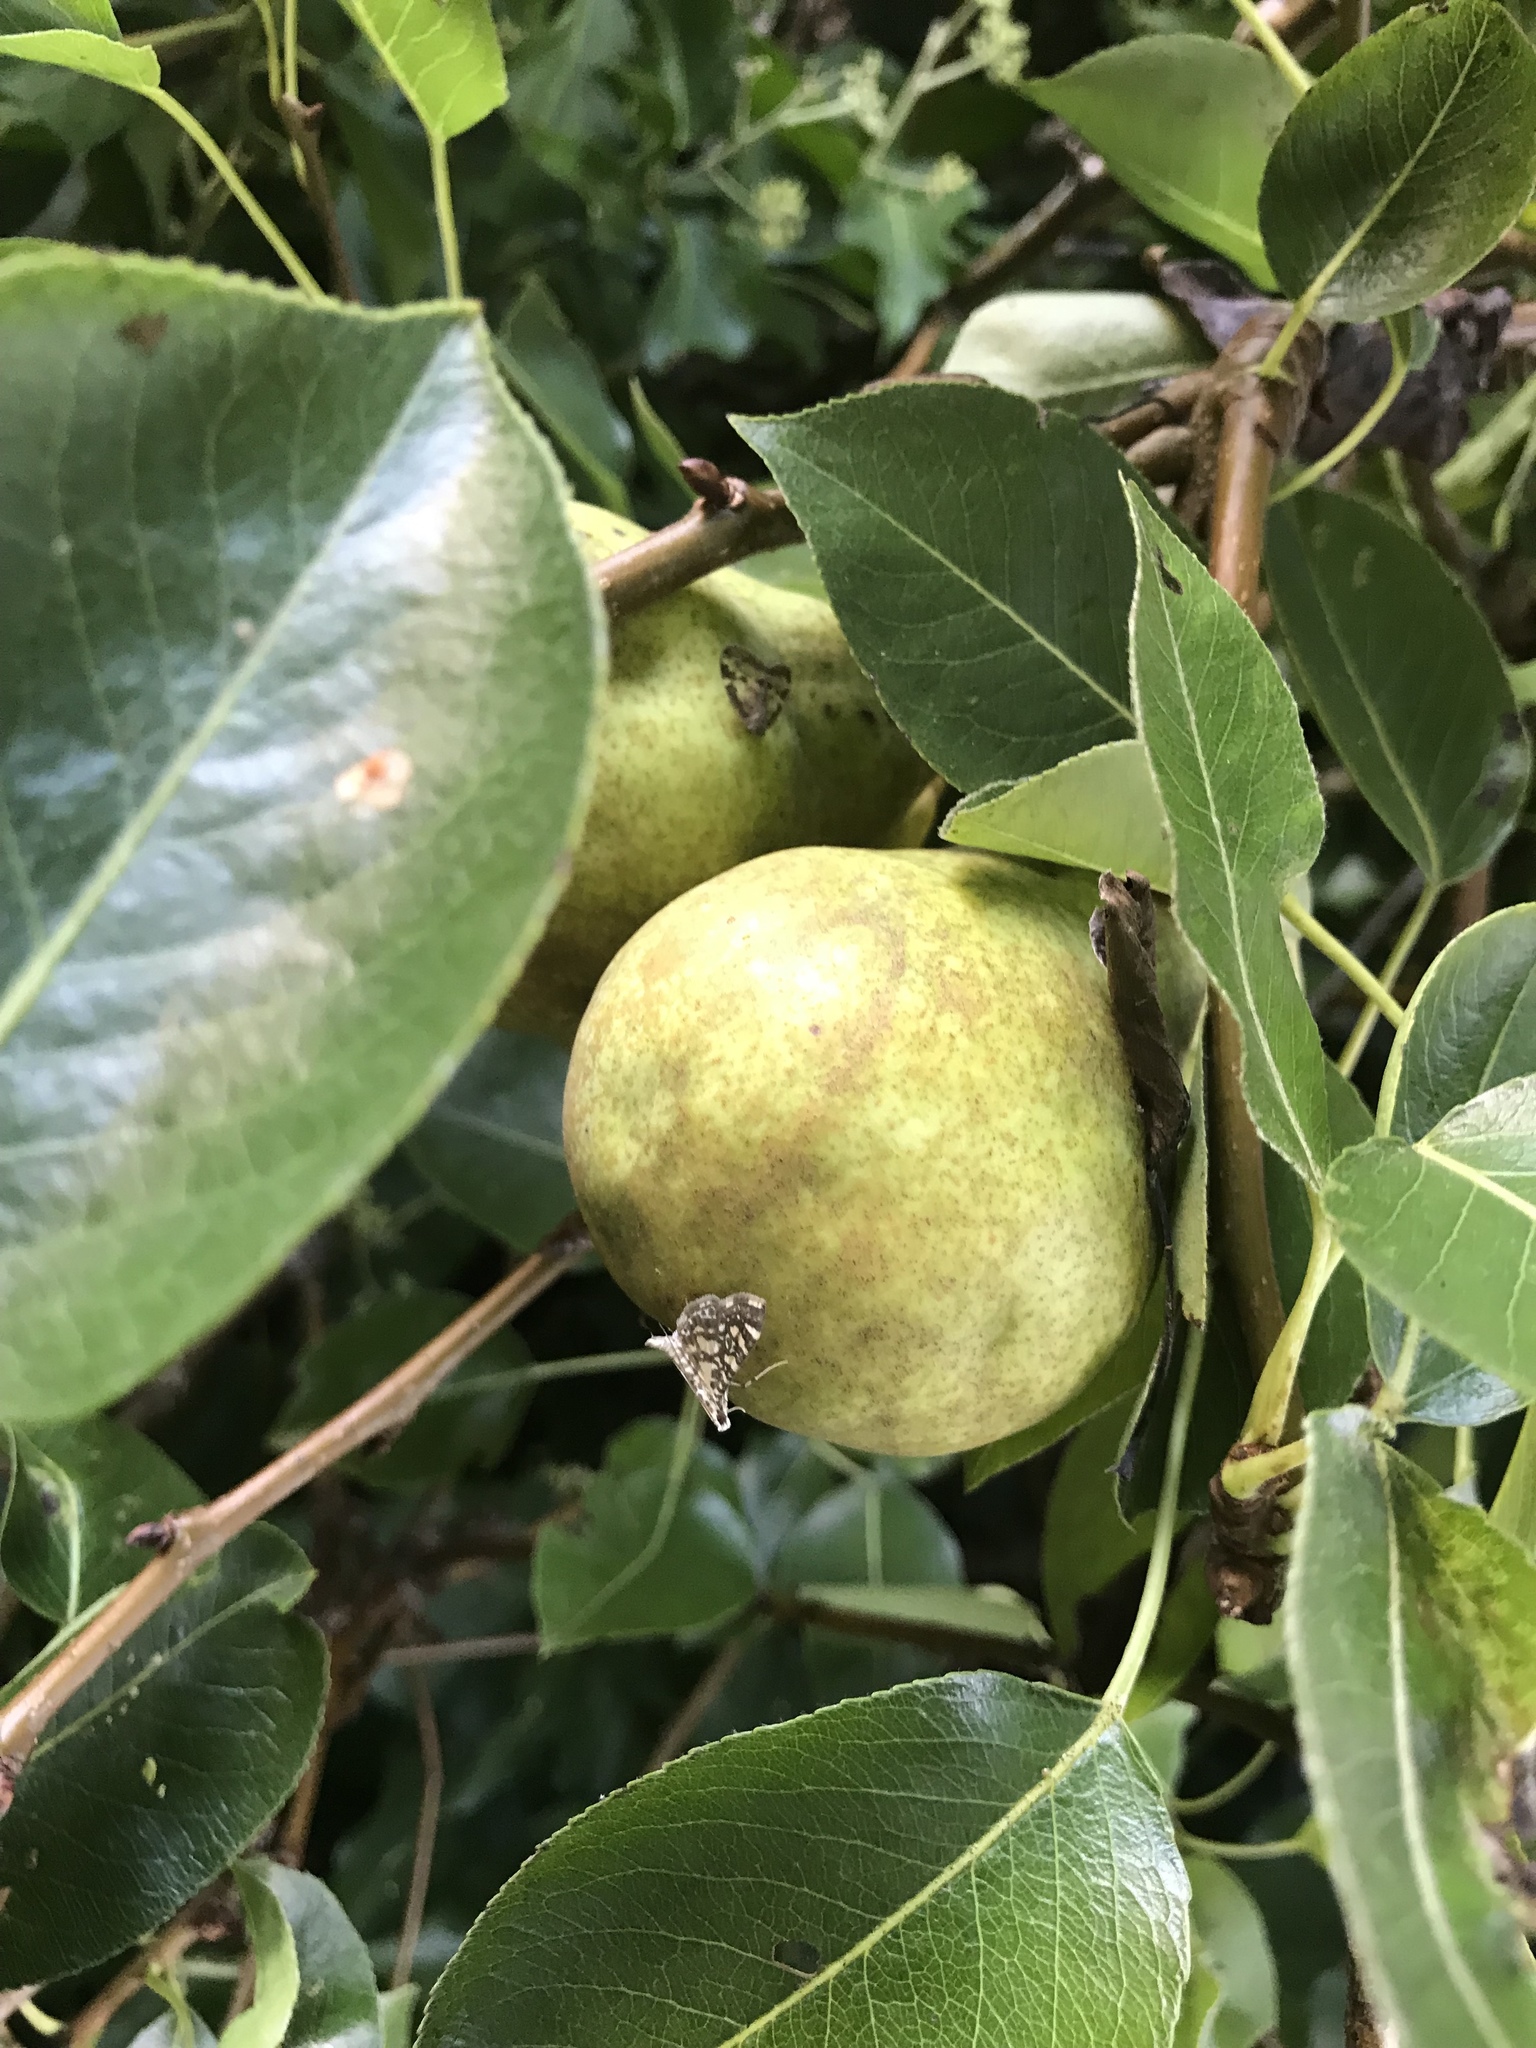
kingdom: Animalia
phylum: Arthropoda
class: Insecta
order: Lepidoptera
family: Crambidae
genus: Glyphodes
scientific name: Glyphodes onychinalis
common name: Swan plant moth
